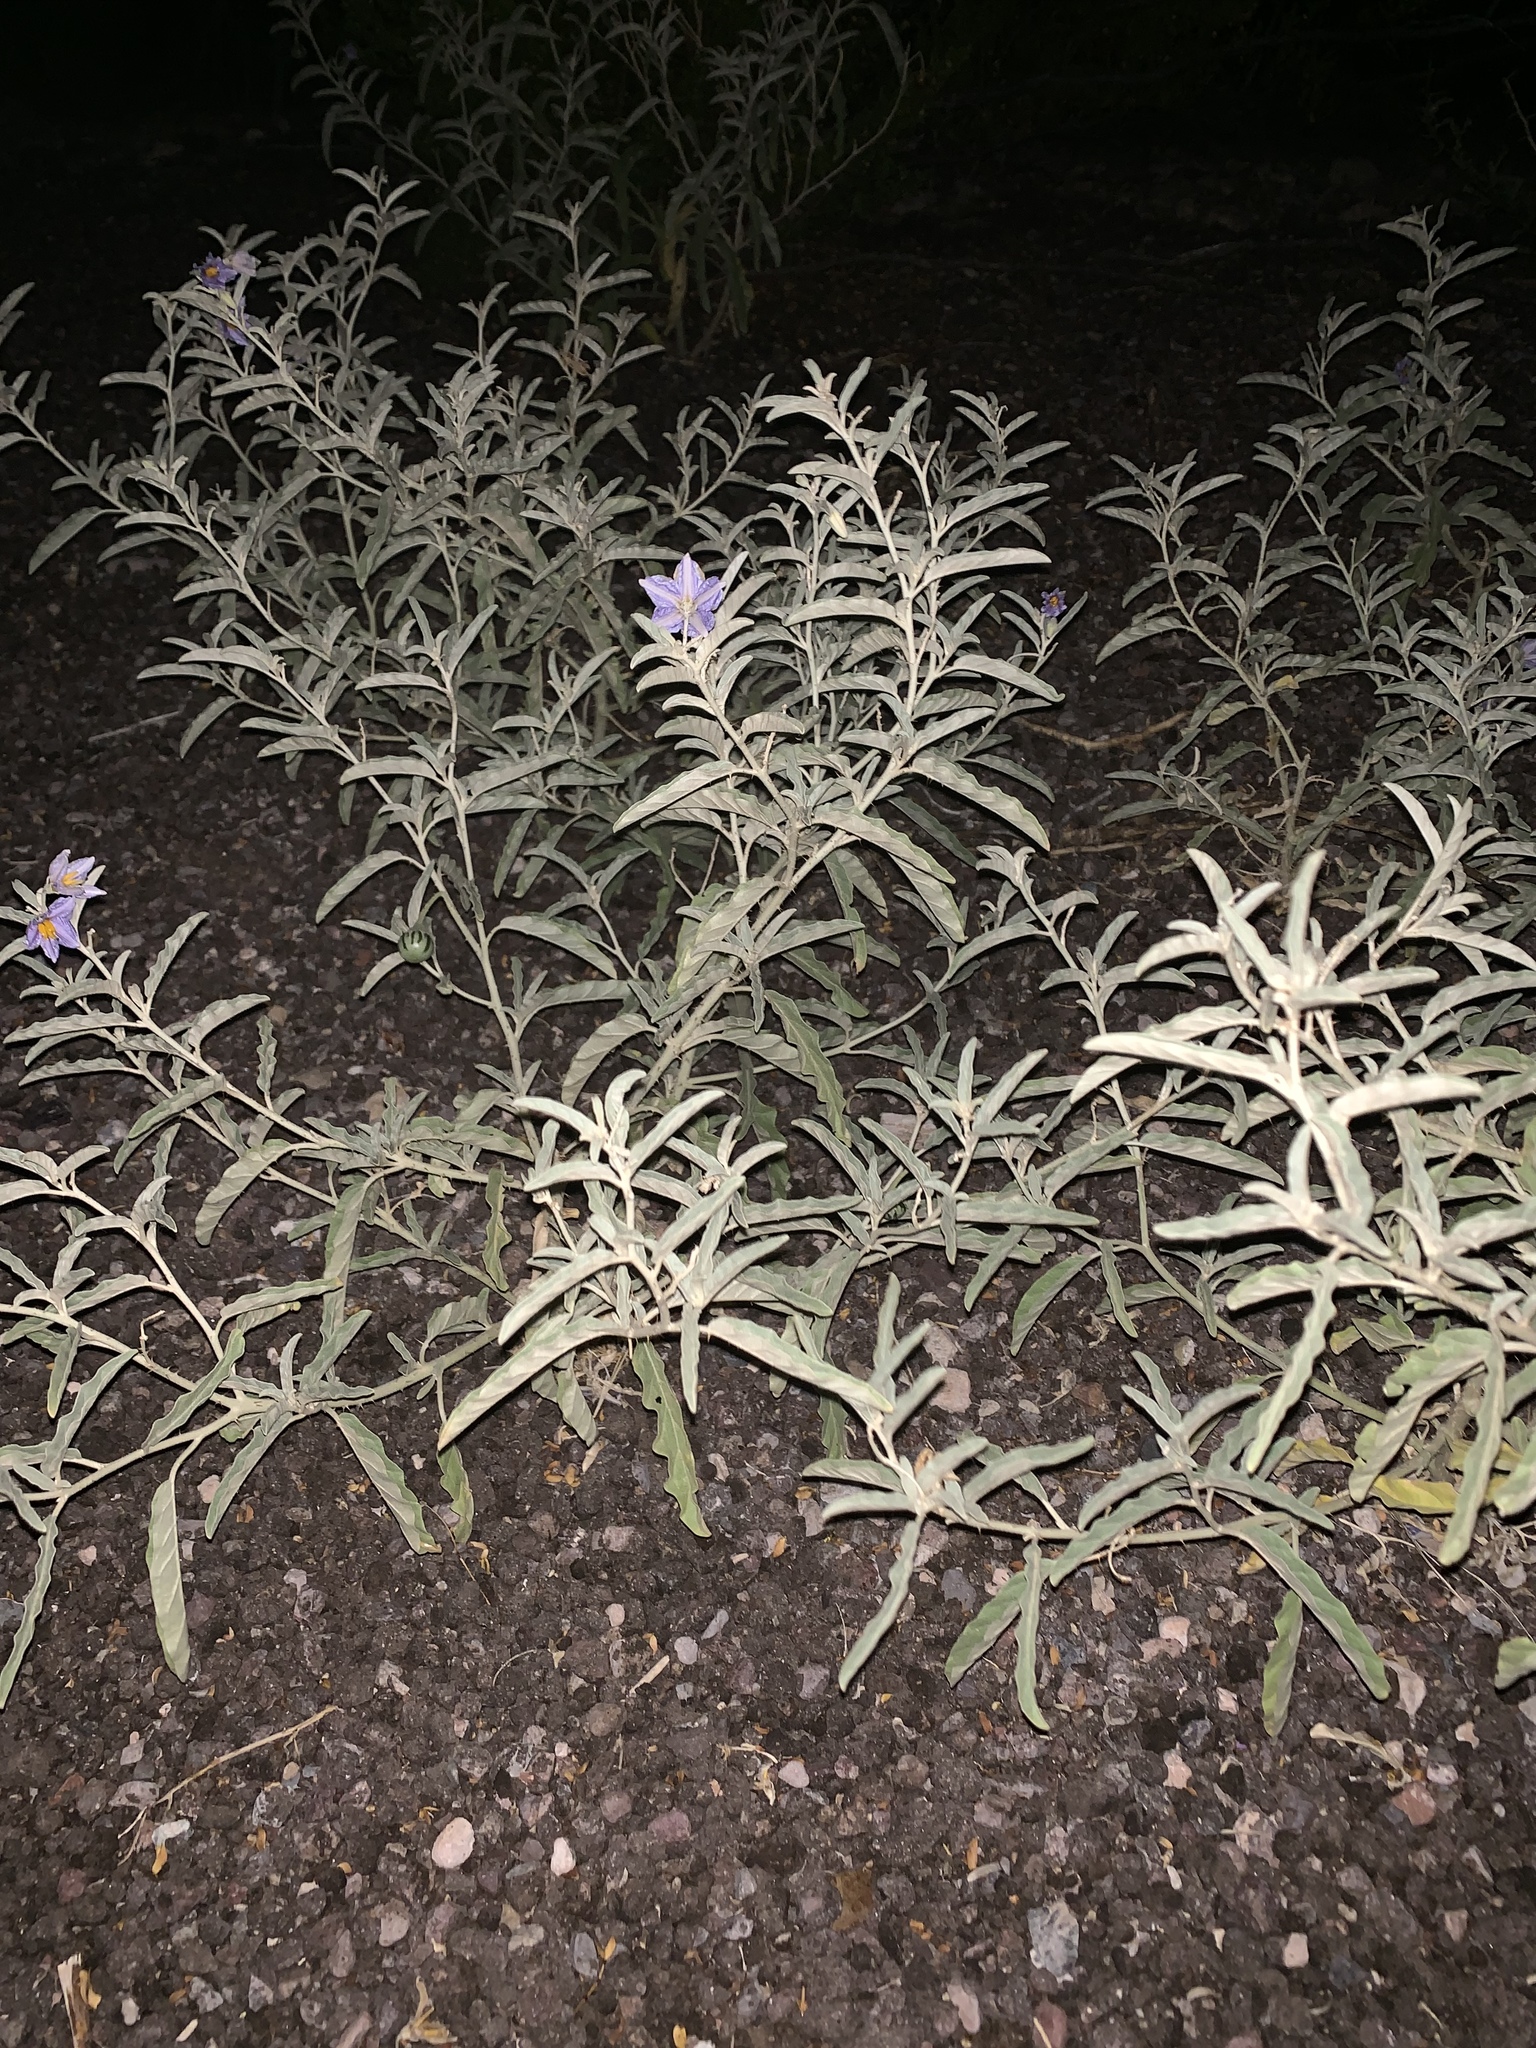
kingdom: Plantae
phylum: Tracheophyta
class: Magnoliopsida
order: Solanales
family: Solanaceae
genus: Solanum
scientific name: Solanum elaeagnifolium
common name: Silverleaf nightshade
